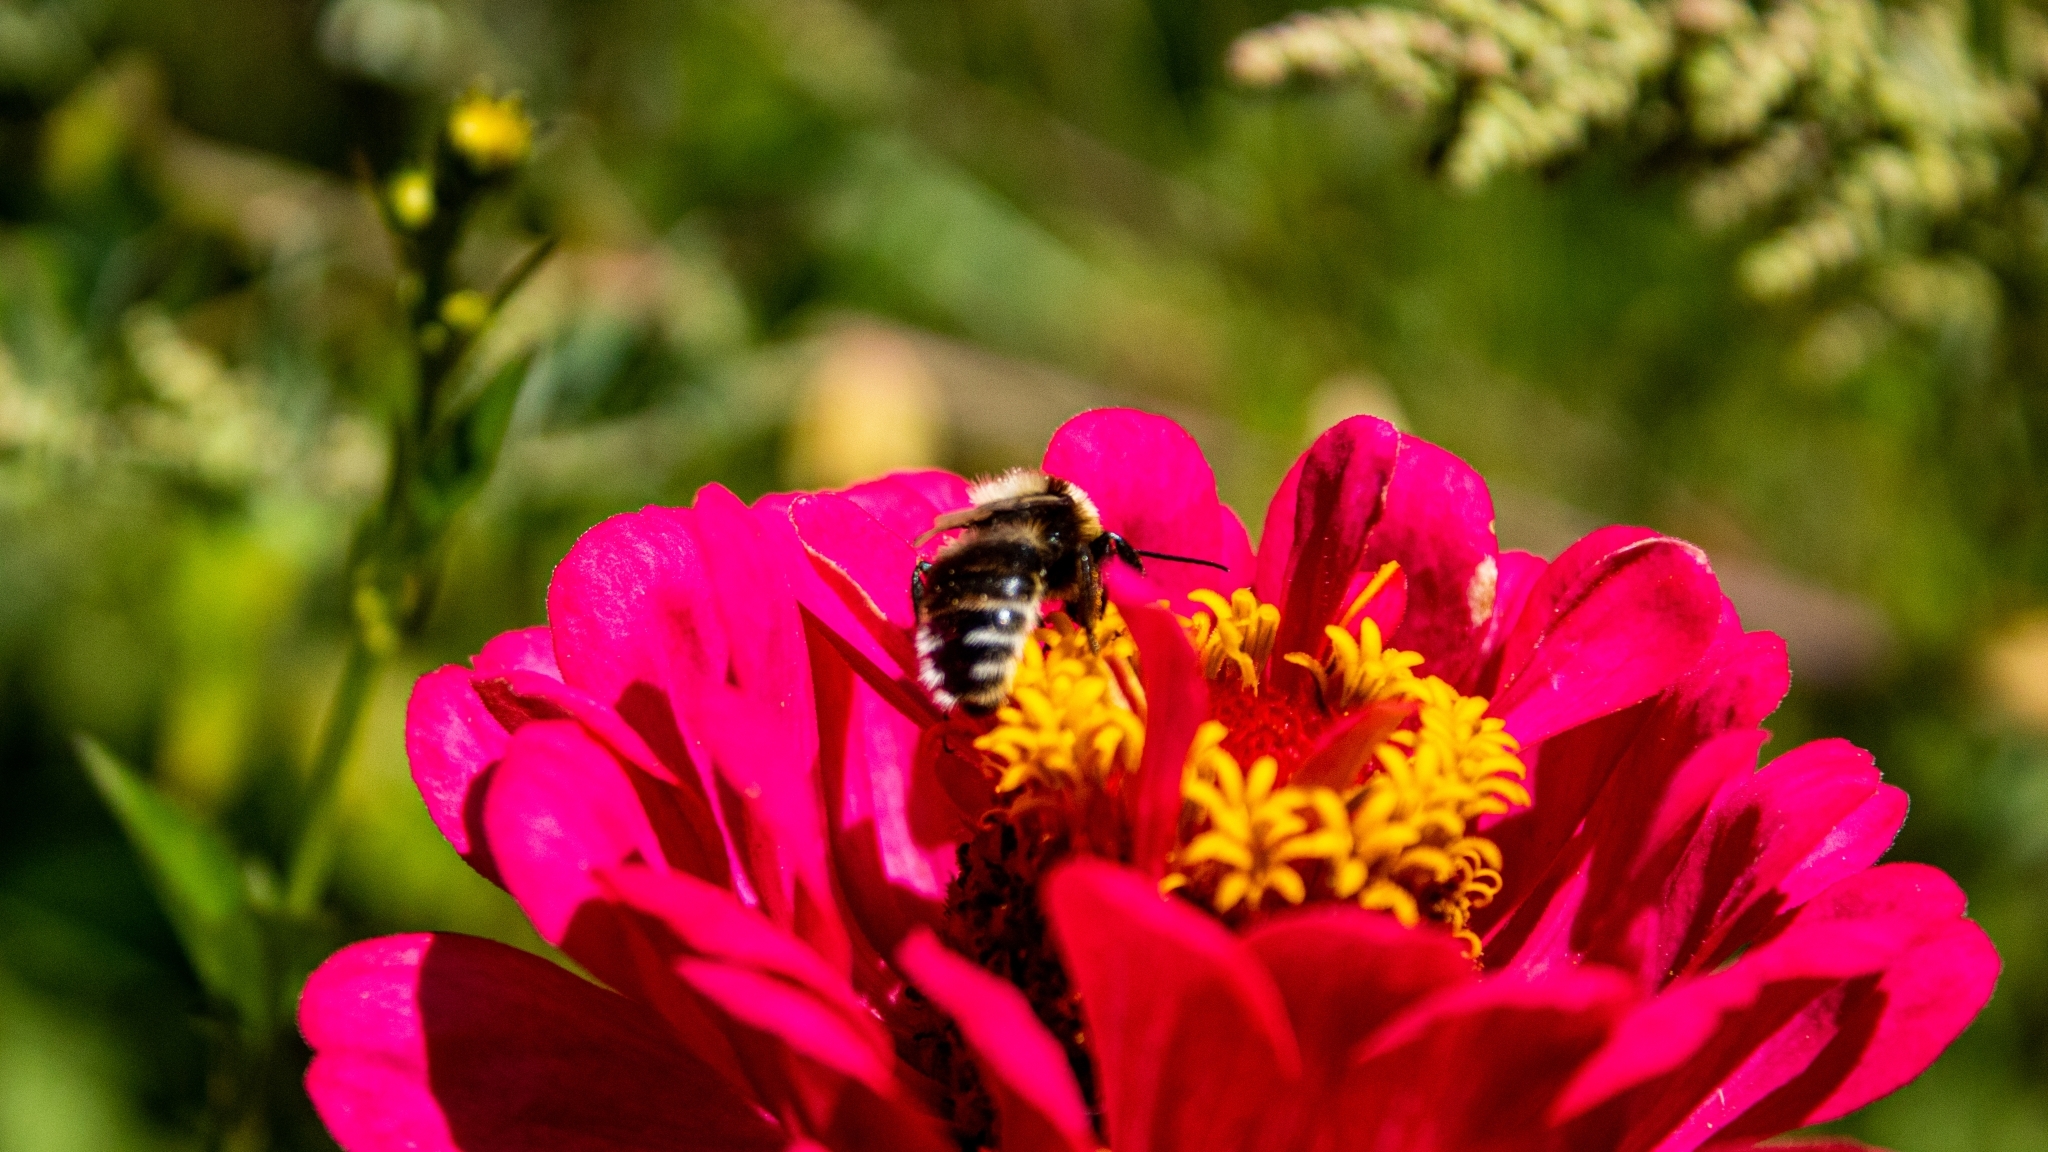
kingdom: Animalia
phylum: Arthropoda
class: Insecta
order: Hymenoptera
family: Apidae
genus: Bombus
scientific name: Bombus ruderatus
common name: Large garden bumblebee
